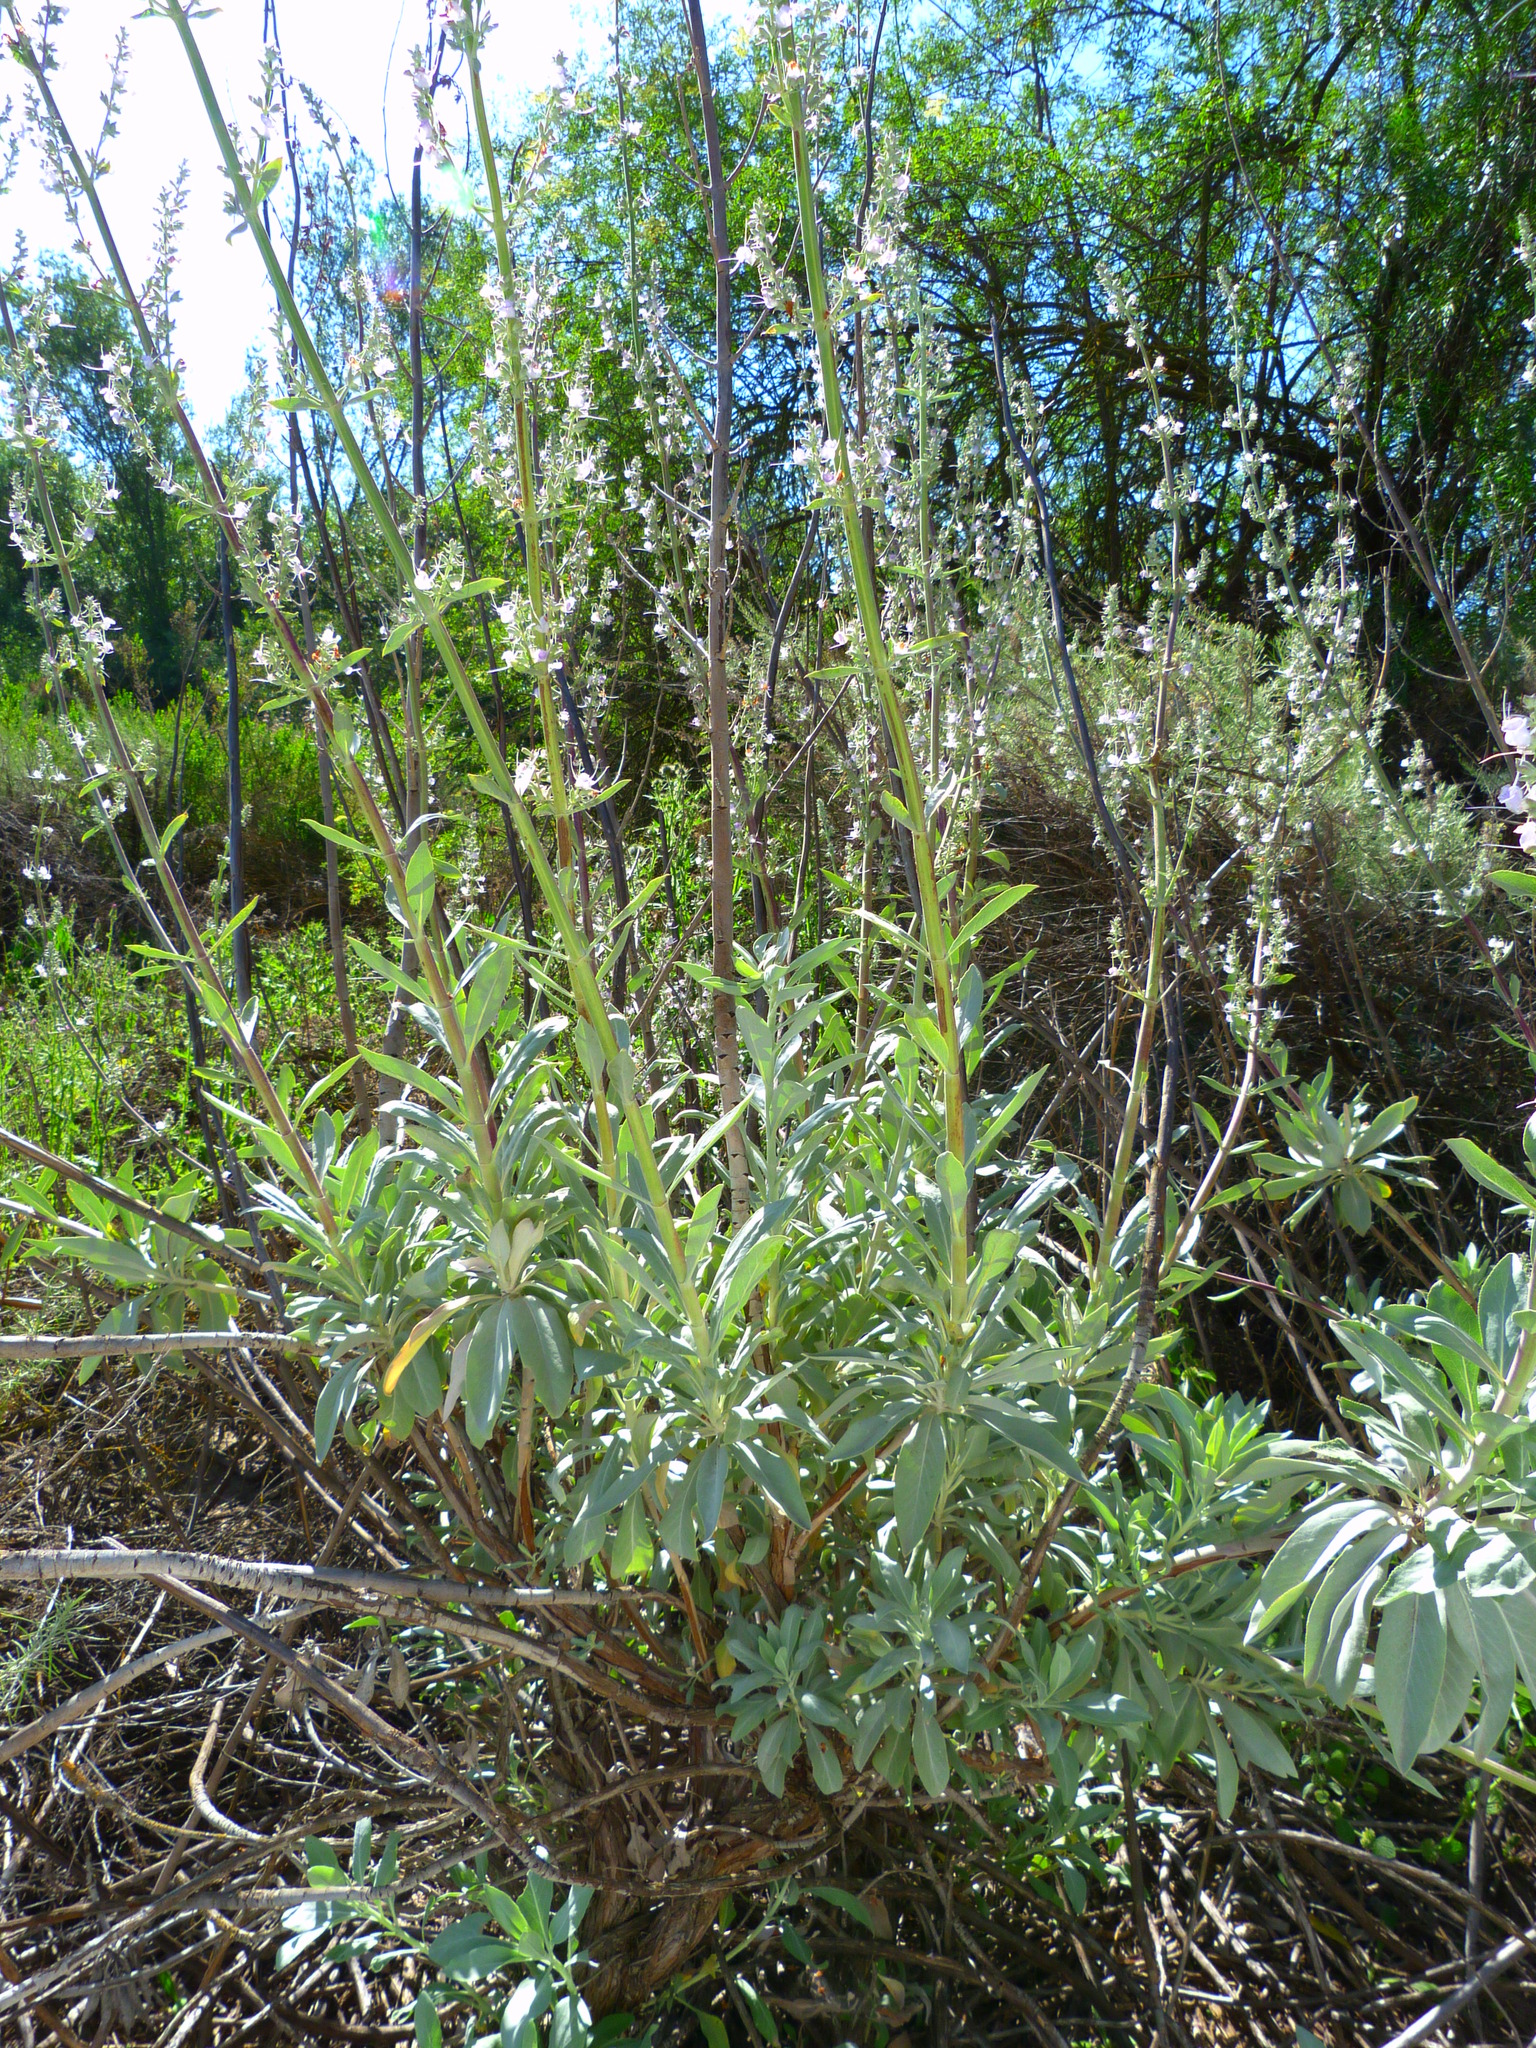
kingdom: Plantae
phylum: Tracheophyta
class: Magnoliopsida
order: Lamiales
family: Lamiaceae
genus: Salvia
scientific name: Salvia apiana
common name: White sage
